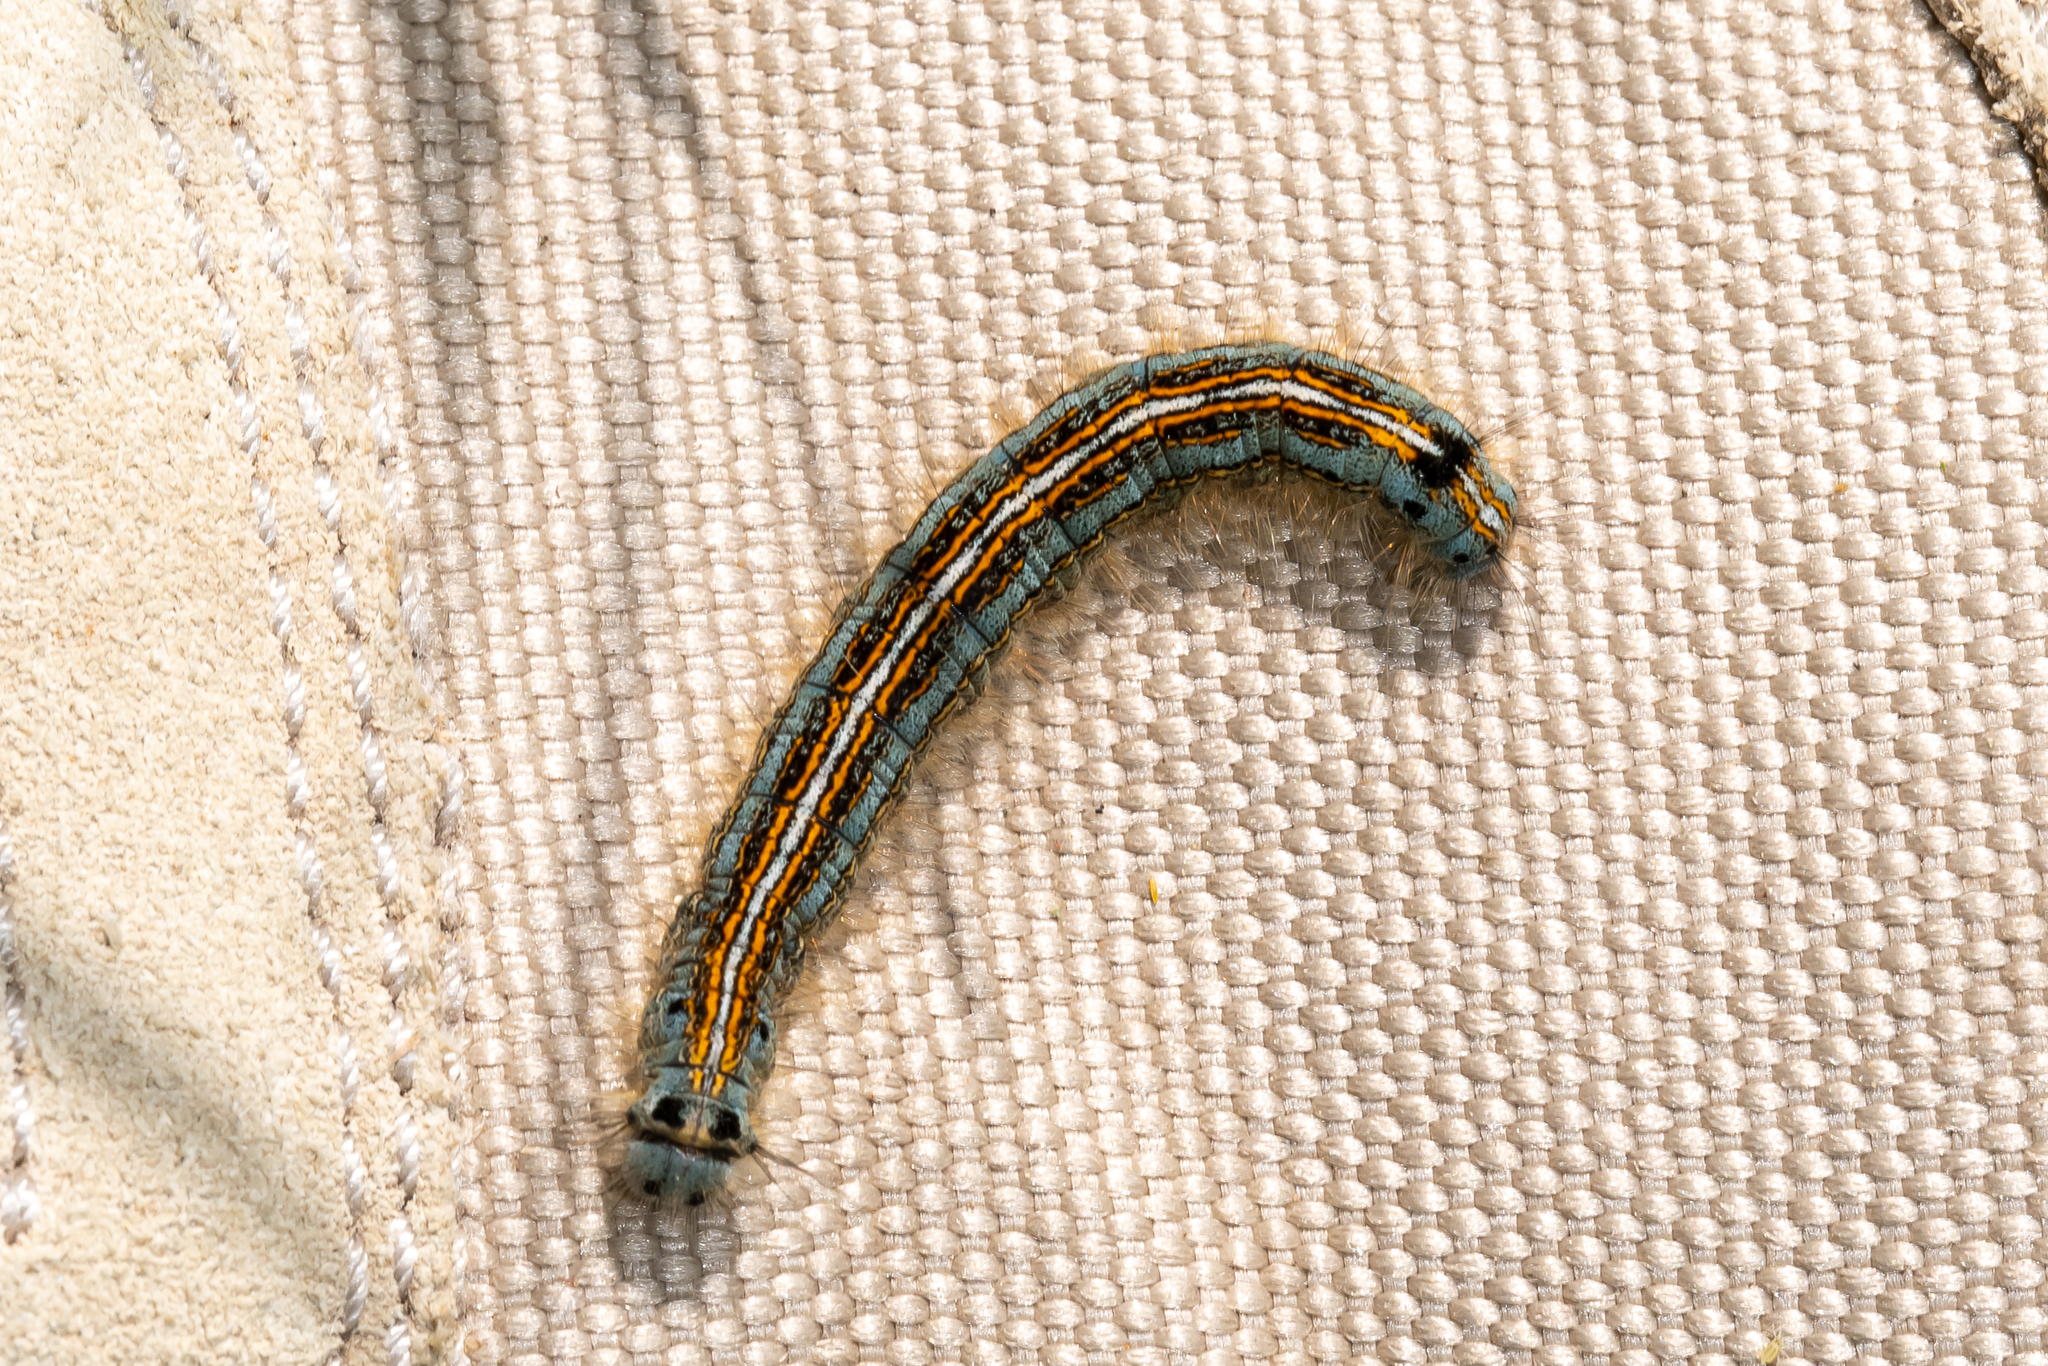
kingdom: Animalia
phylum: Arthropoda
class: Insecta
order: Lepidoptera
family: Lasiocampidae
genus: Malacosoma
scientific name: Malacosoma neustria
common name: The lackey
